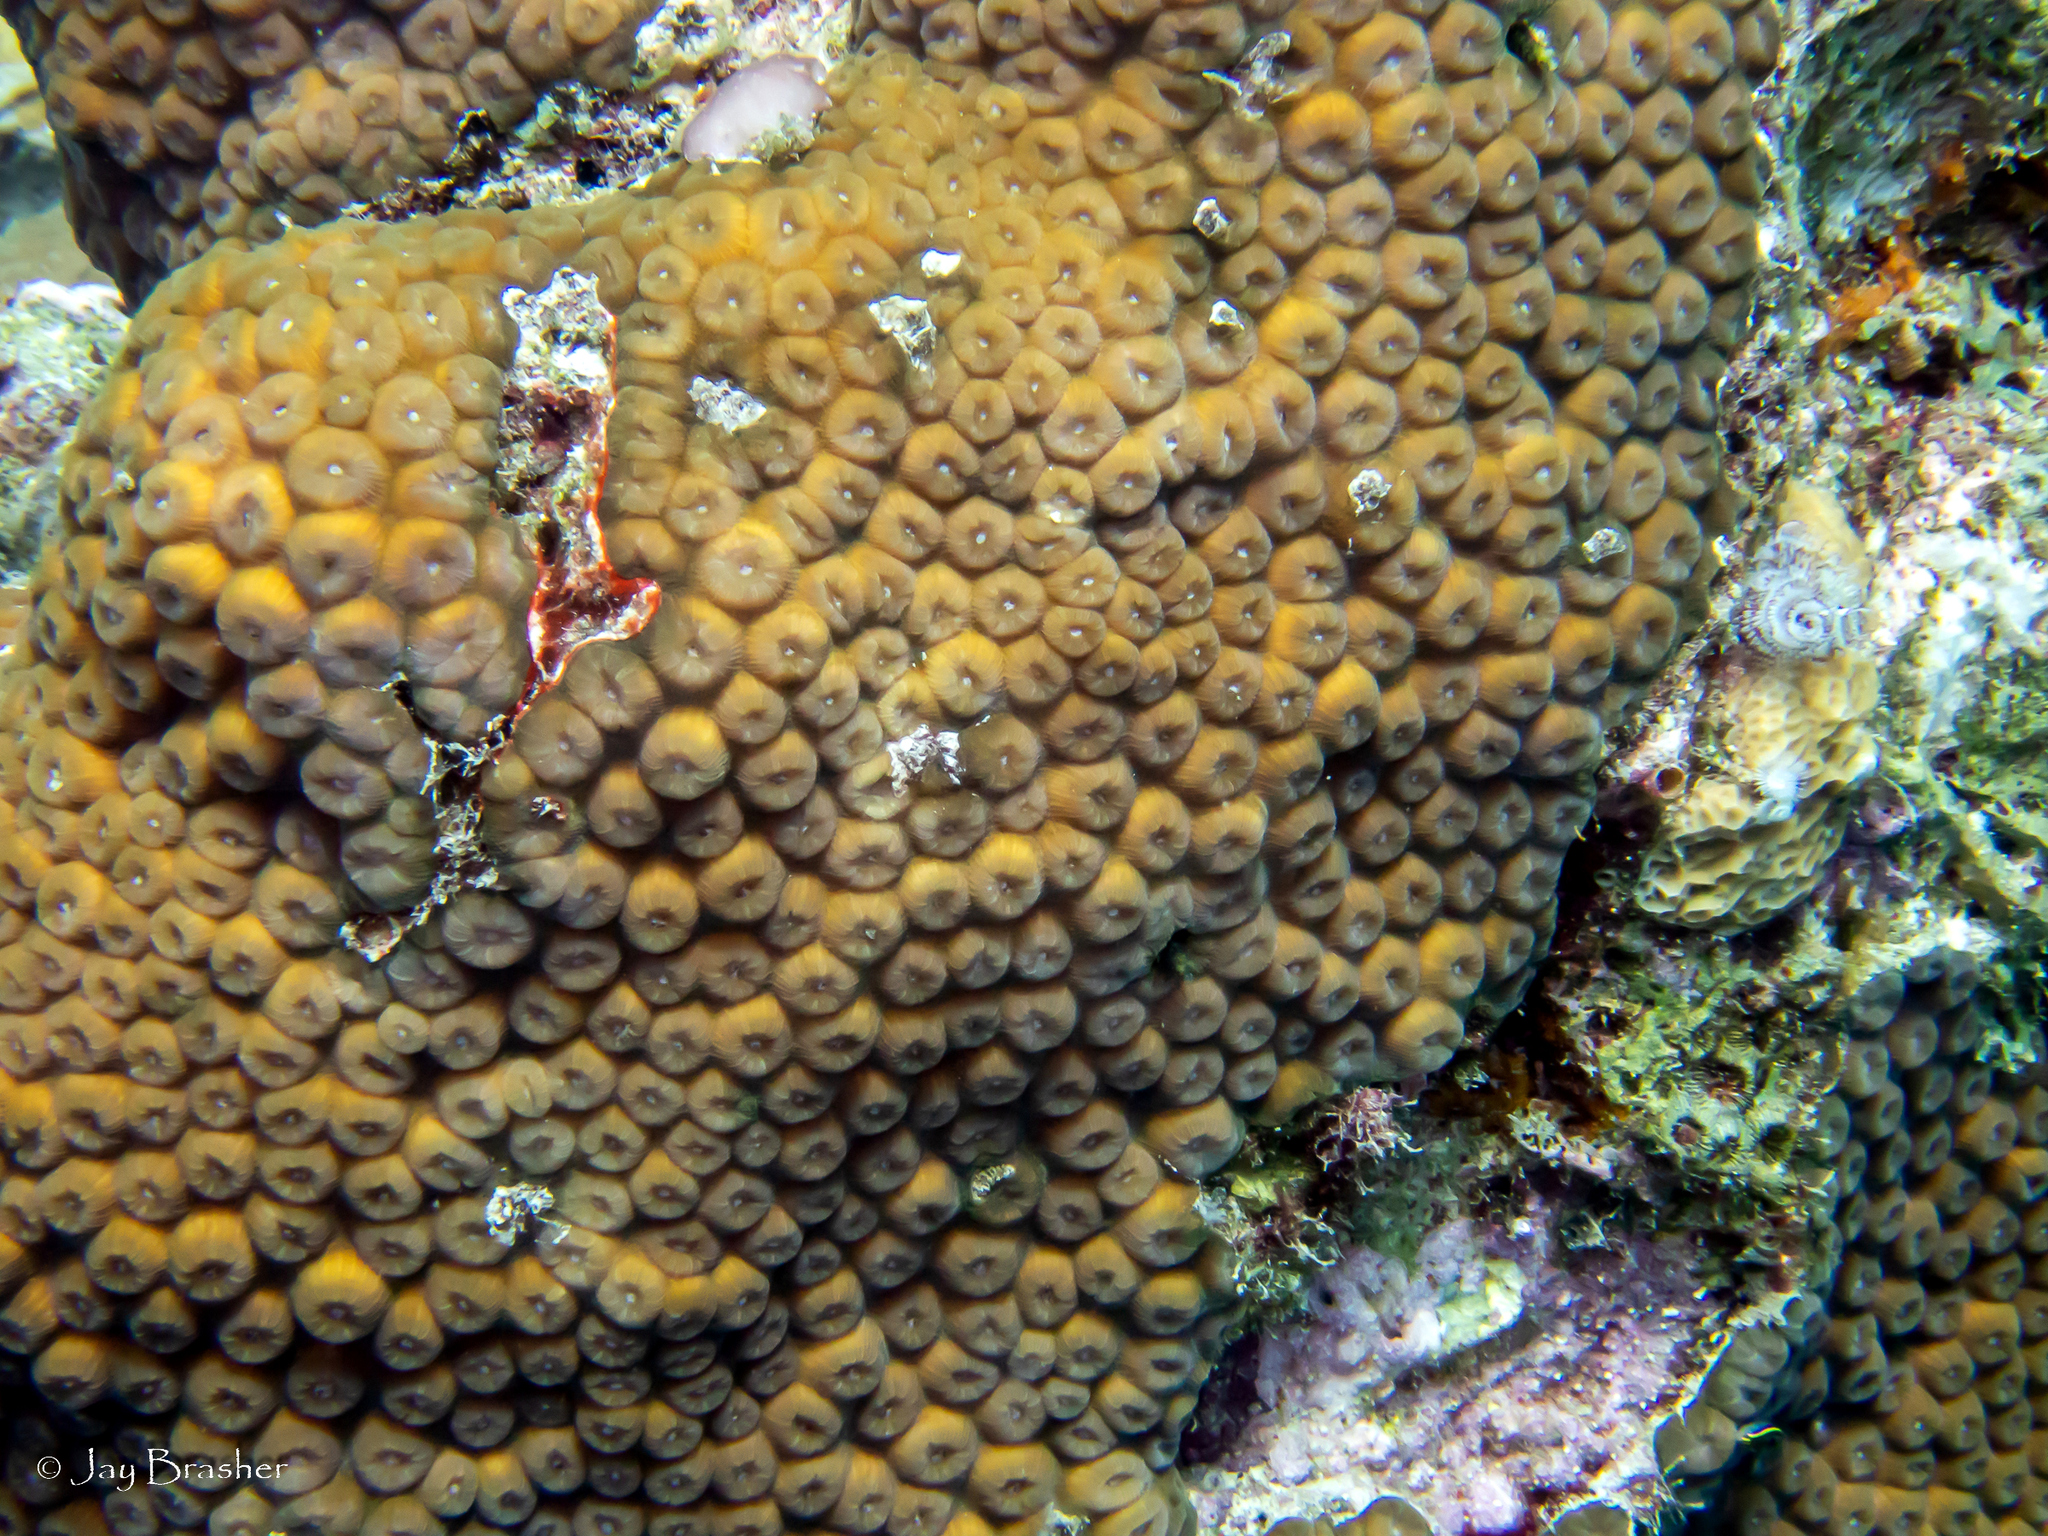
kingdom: Animalia
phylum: Cnidaria
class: Anthozoa
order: Scleractinia
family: Montastraeidae
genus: Montastraea
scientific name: Montastraea cavernosa
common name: Great star coral
